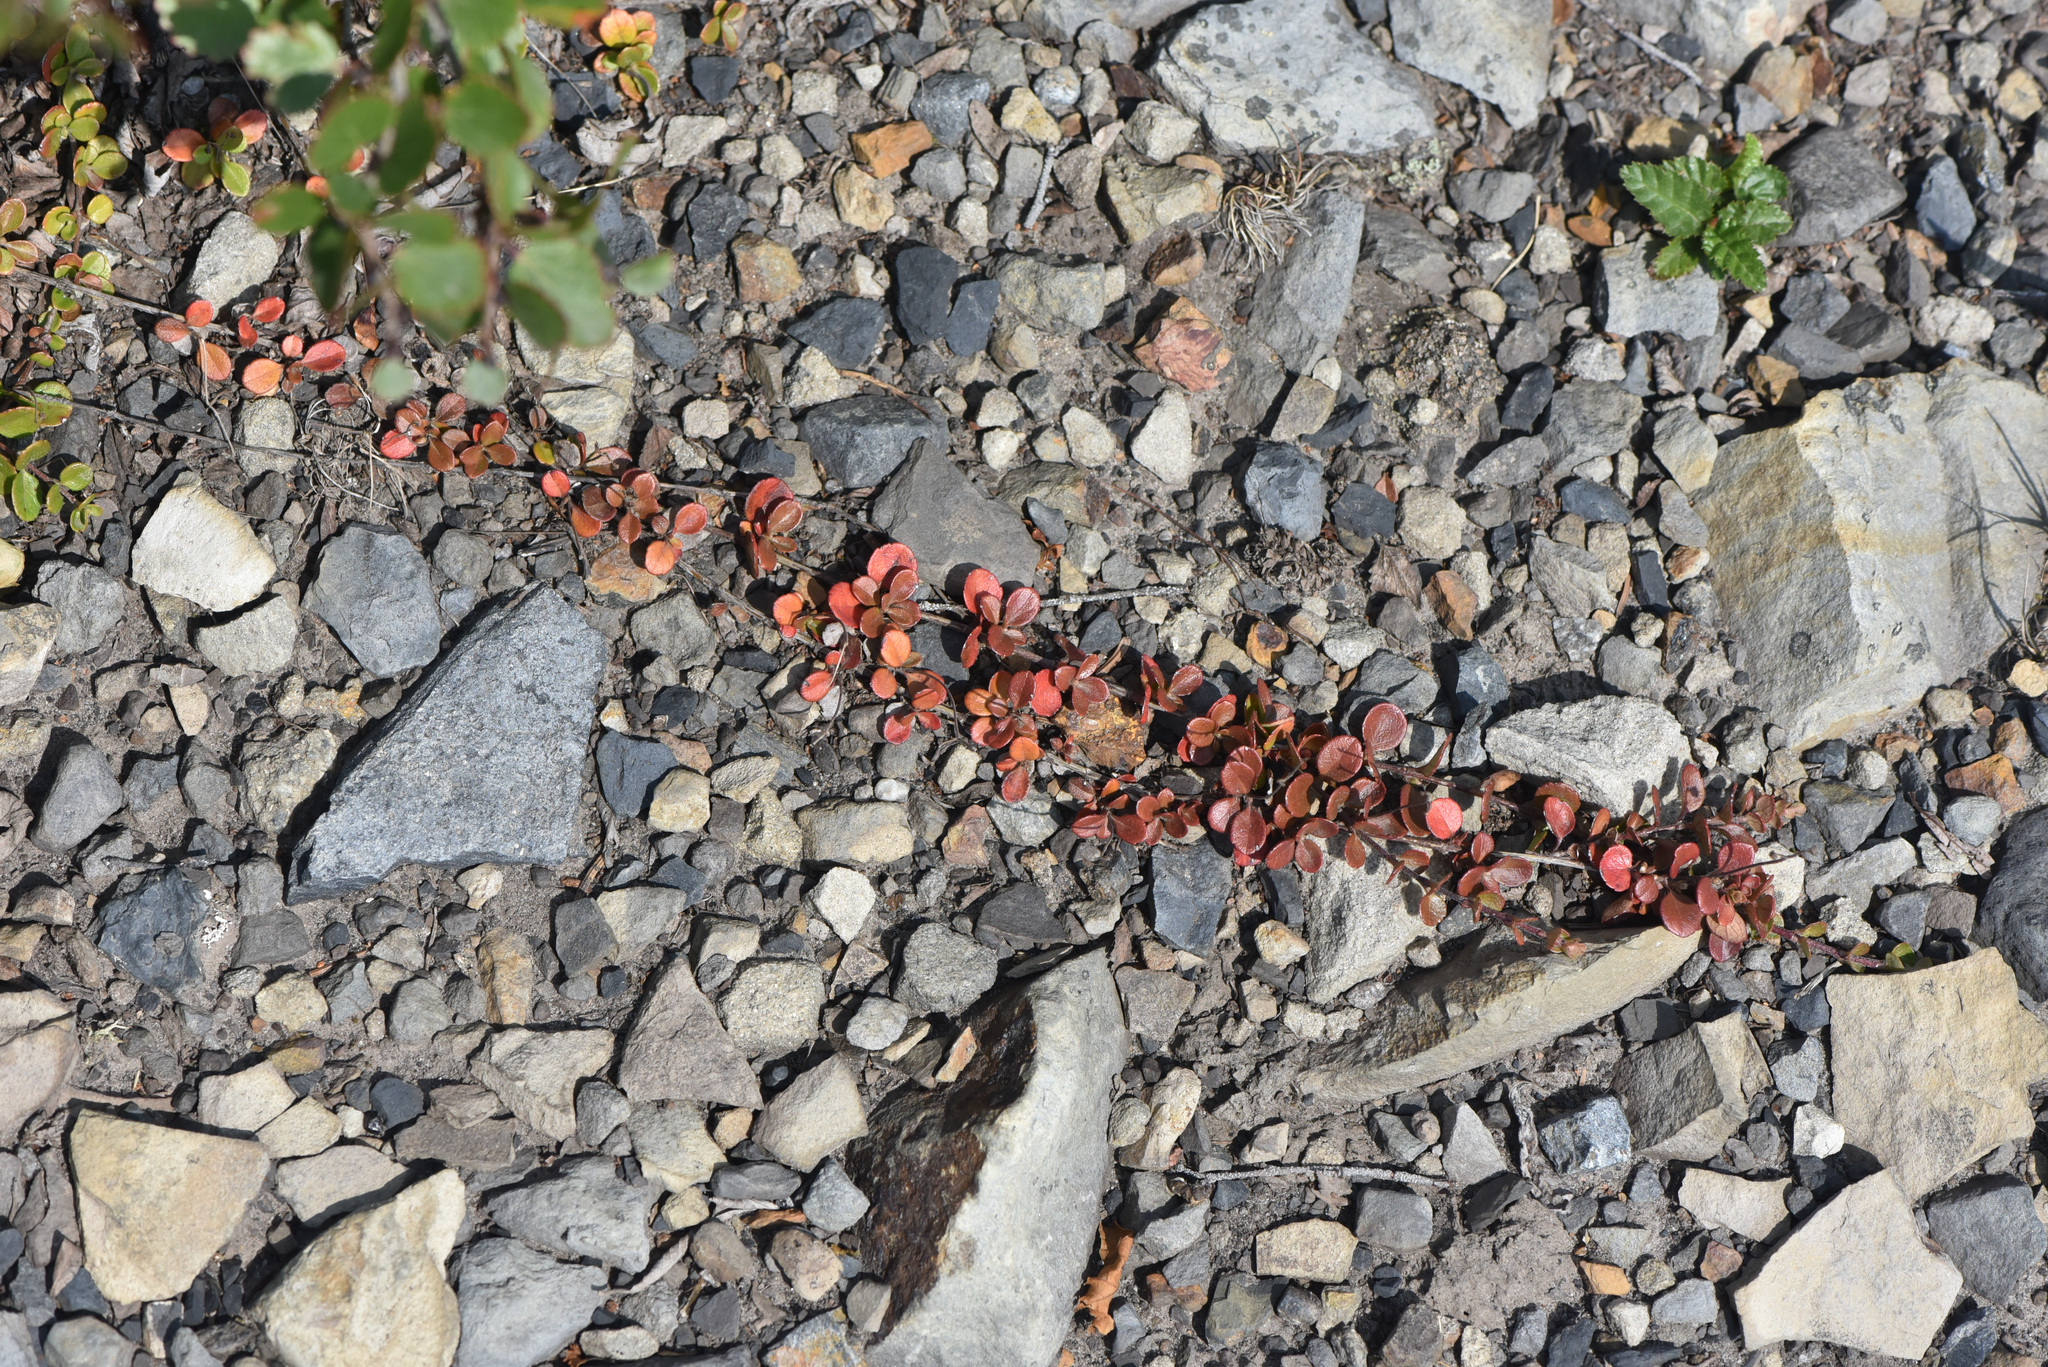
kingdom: Plantae
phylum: Tracheophyta
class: Magnoliopsida
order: Dipsacales
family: Caprifoliaceae
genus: Linnaea
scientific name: Linnaea borealis
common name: Twinflower
